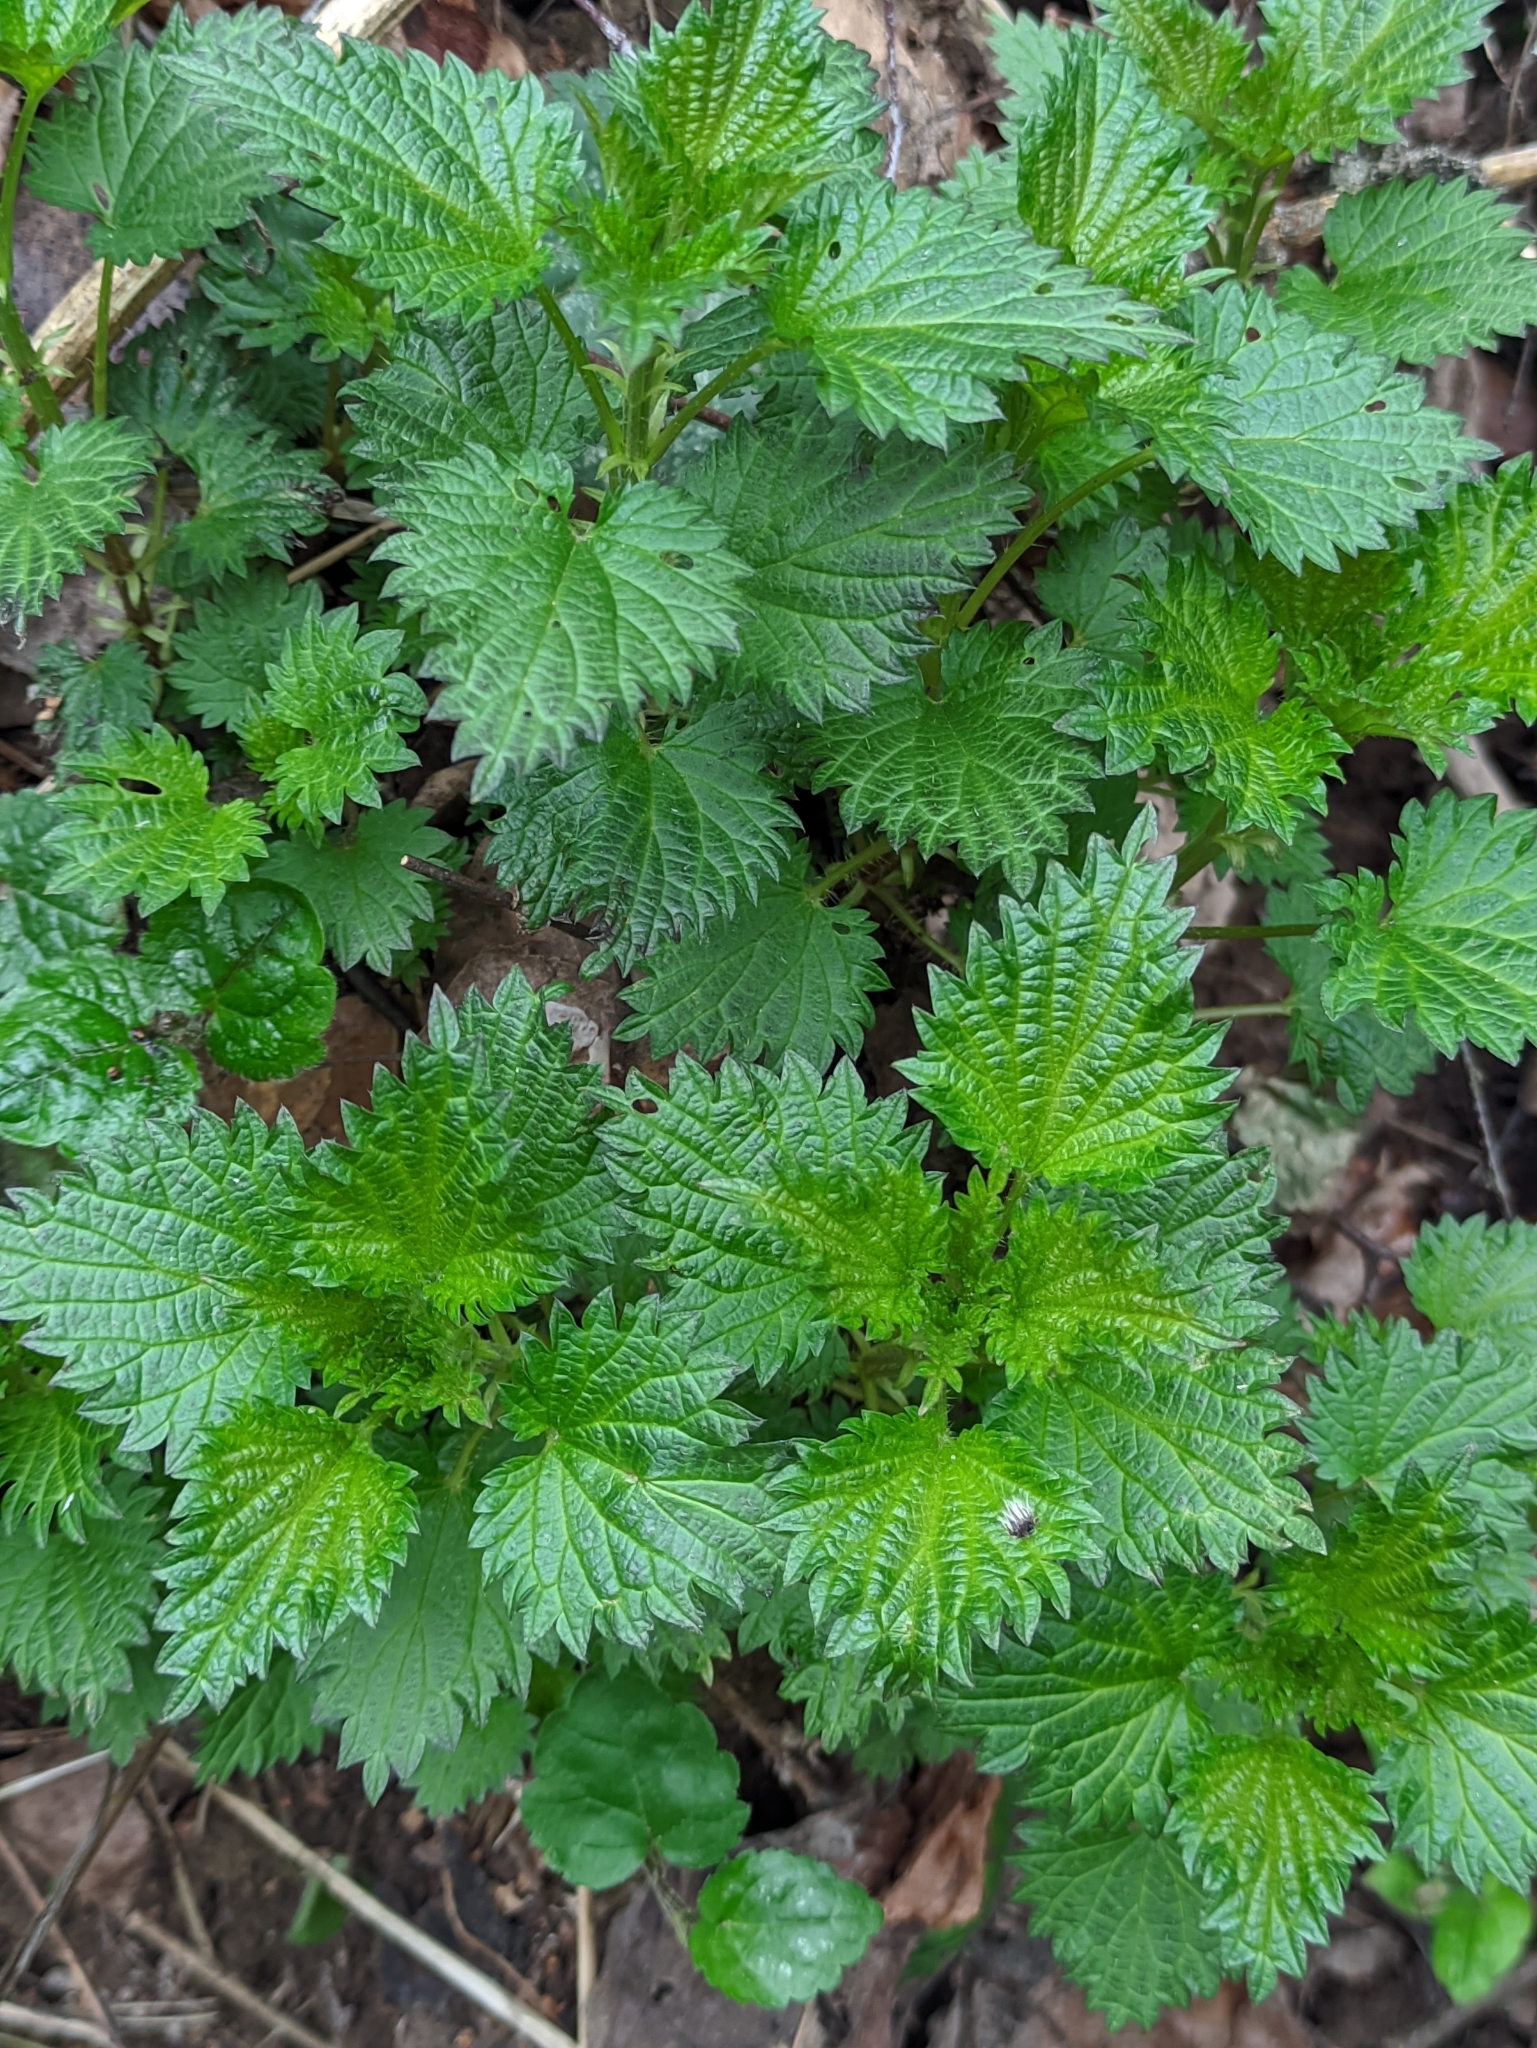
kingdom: Plantae
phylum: Tracheophyta
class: Magnoliopsida
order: Rosales
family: Urticaceae
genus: Urtica
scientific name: Urtica dioica
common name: Common nettle
